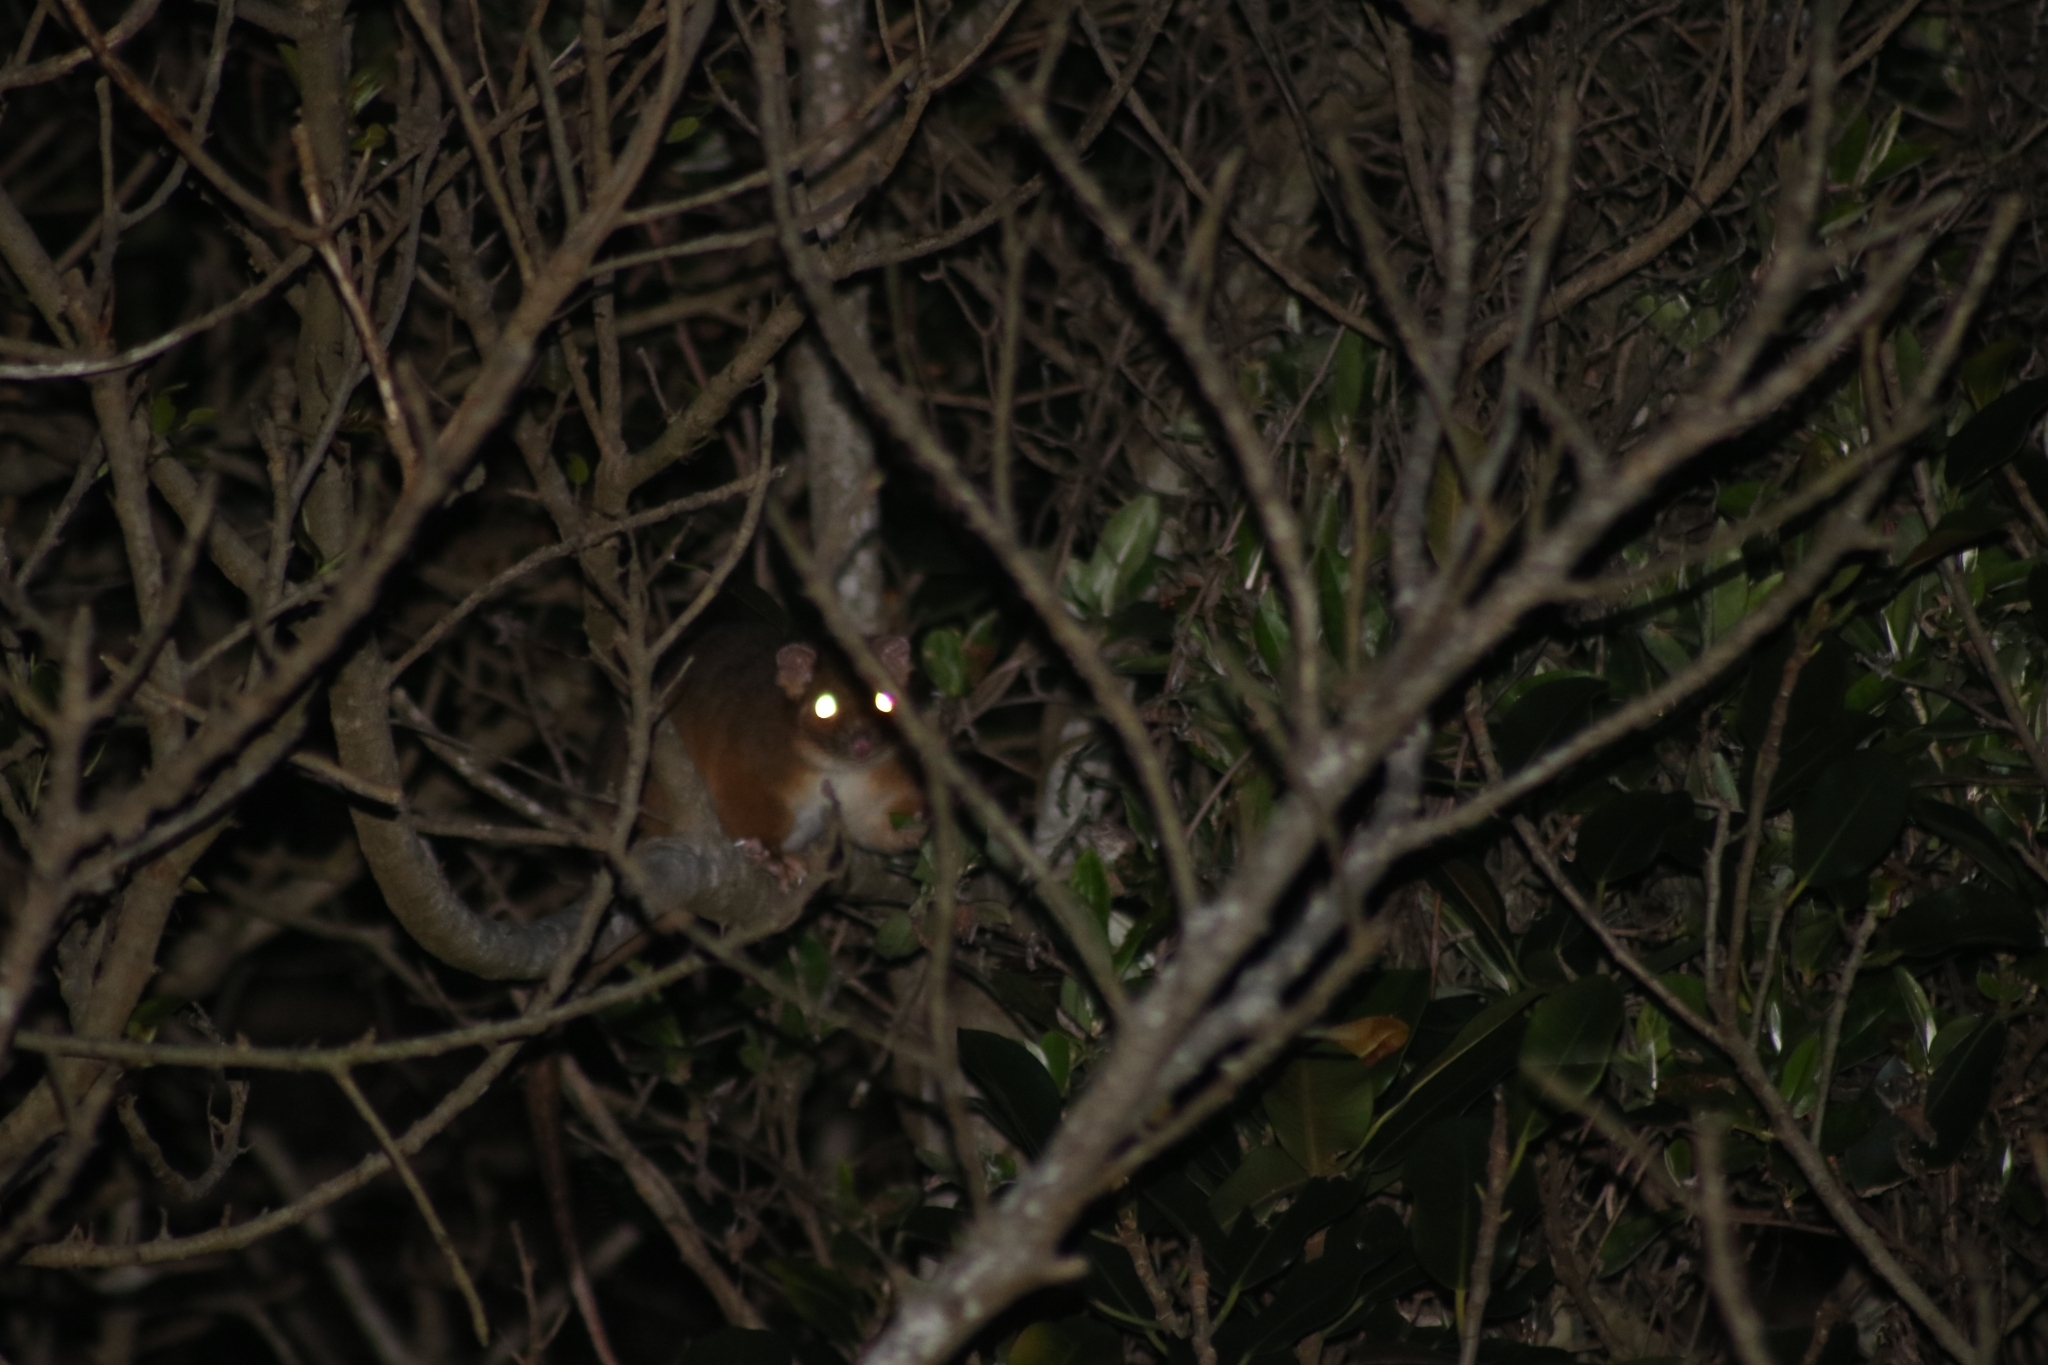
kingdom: Animalia
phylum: Chordata
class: Mammalia
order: Diprotodontia
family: Pseudocheiridae
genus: Pseudocheirus
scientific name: Pseudocheirus peregrinus
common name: Common ringtail possum
